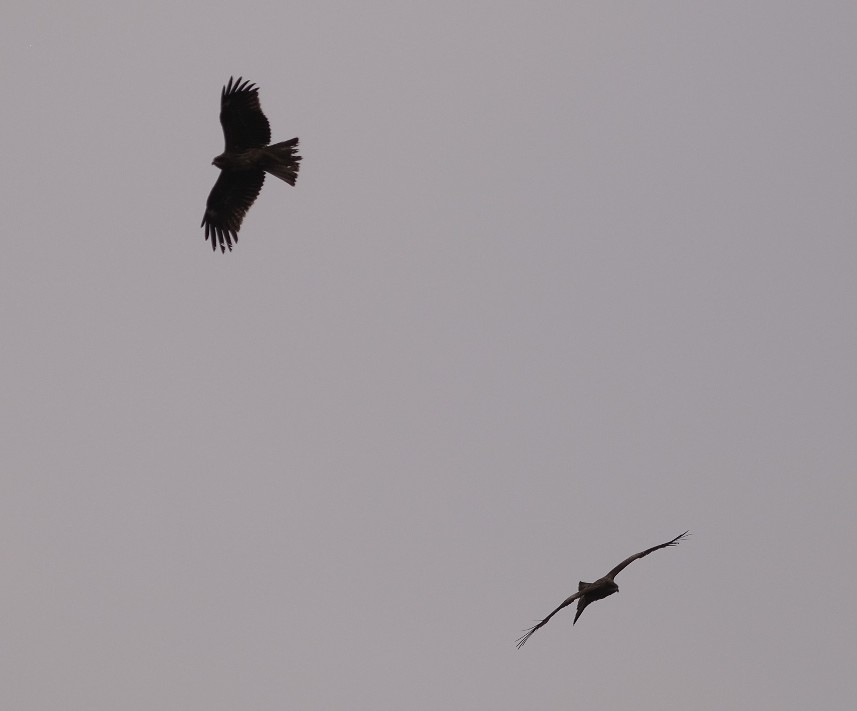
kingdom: Animalia
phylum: Chordata
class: Aves
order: Accipitriformes
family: Accipitridae
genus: Milvus
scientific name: Milvus migrans
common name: Black kite
